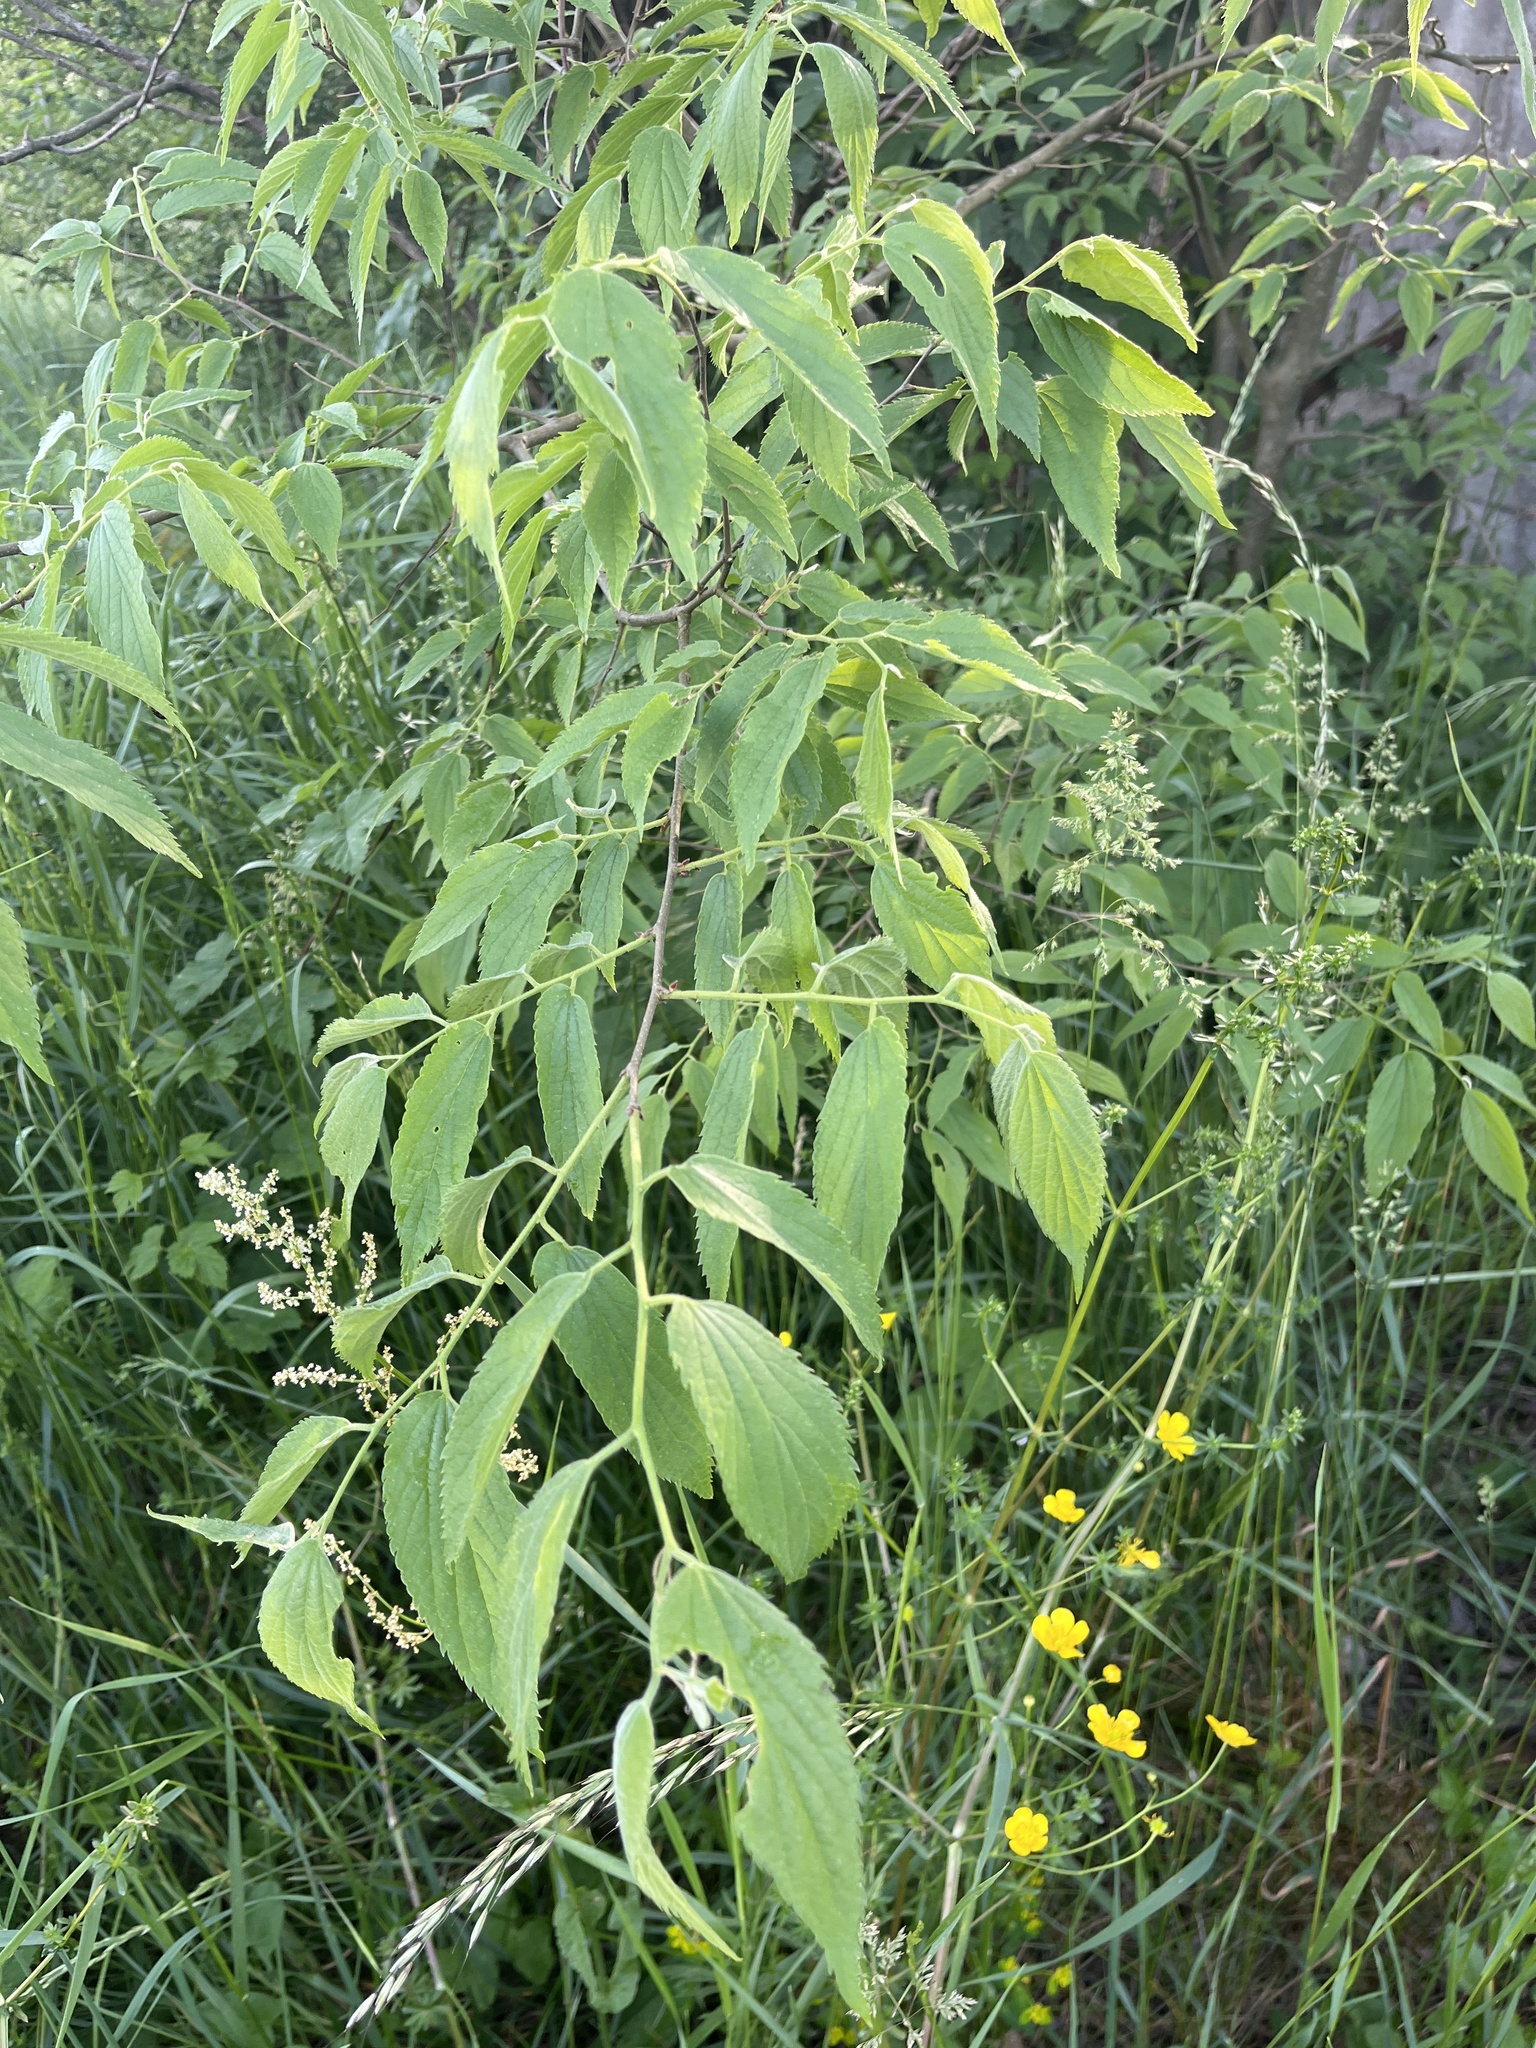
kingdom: Plantae
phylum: Tracheophyta
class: Magnoliopsida
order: Rosales
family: Cannabaceae
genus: Celtis
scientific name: Celtis australis
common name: European hackberry
